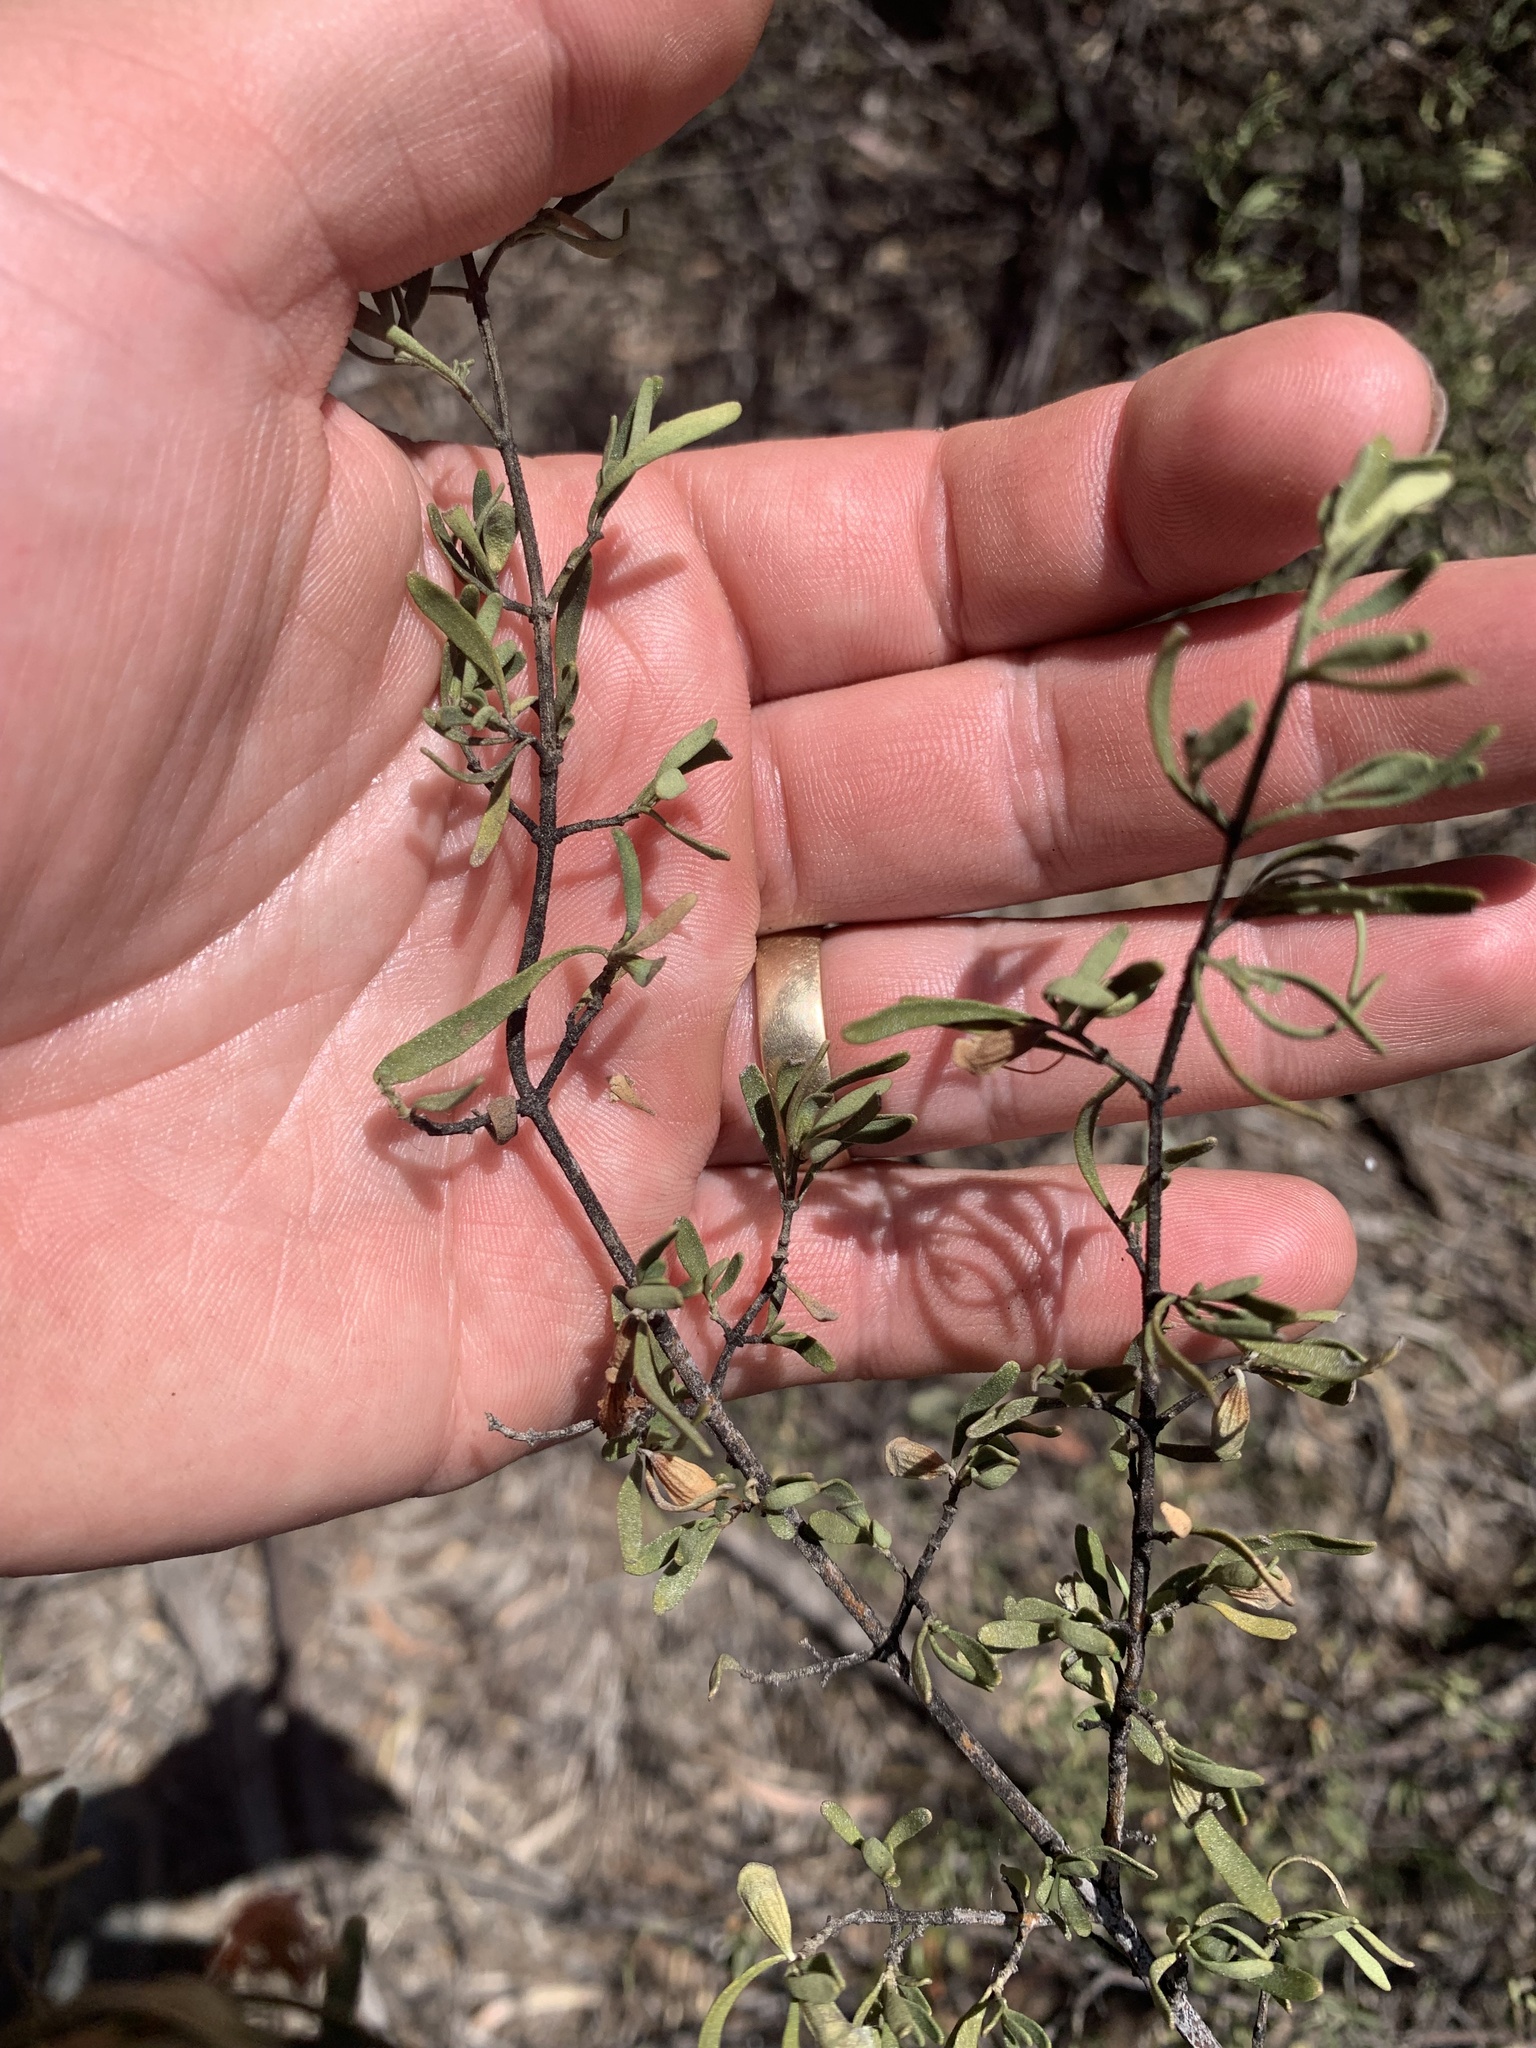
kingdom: Plantae
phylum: Tracheophyta
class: Magnoliopsida
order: Lamiales
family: Lamiaceae
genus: Prostanthera
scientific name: Prostanthera ringens
